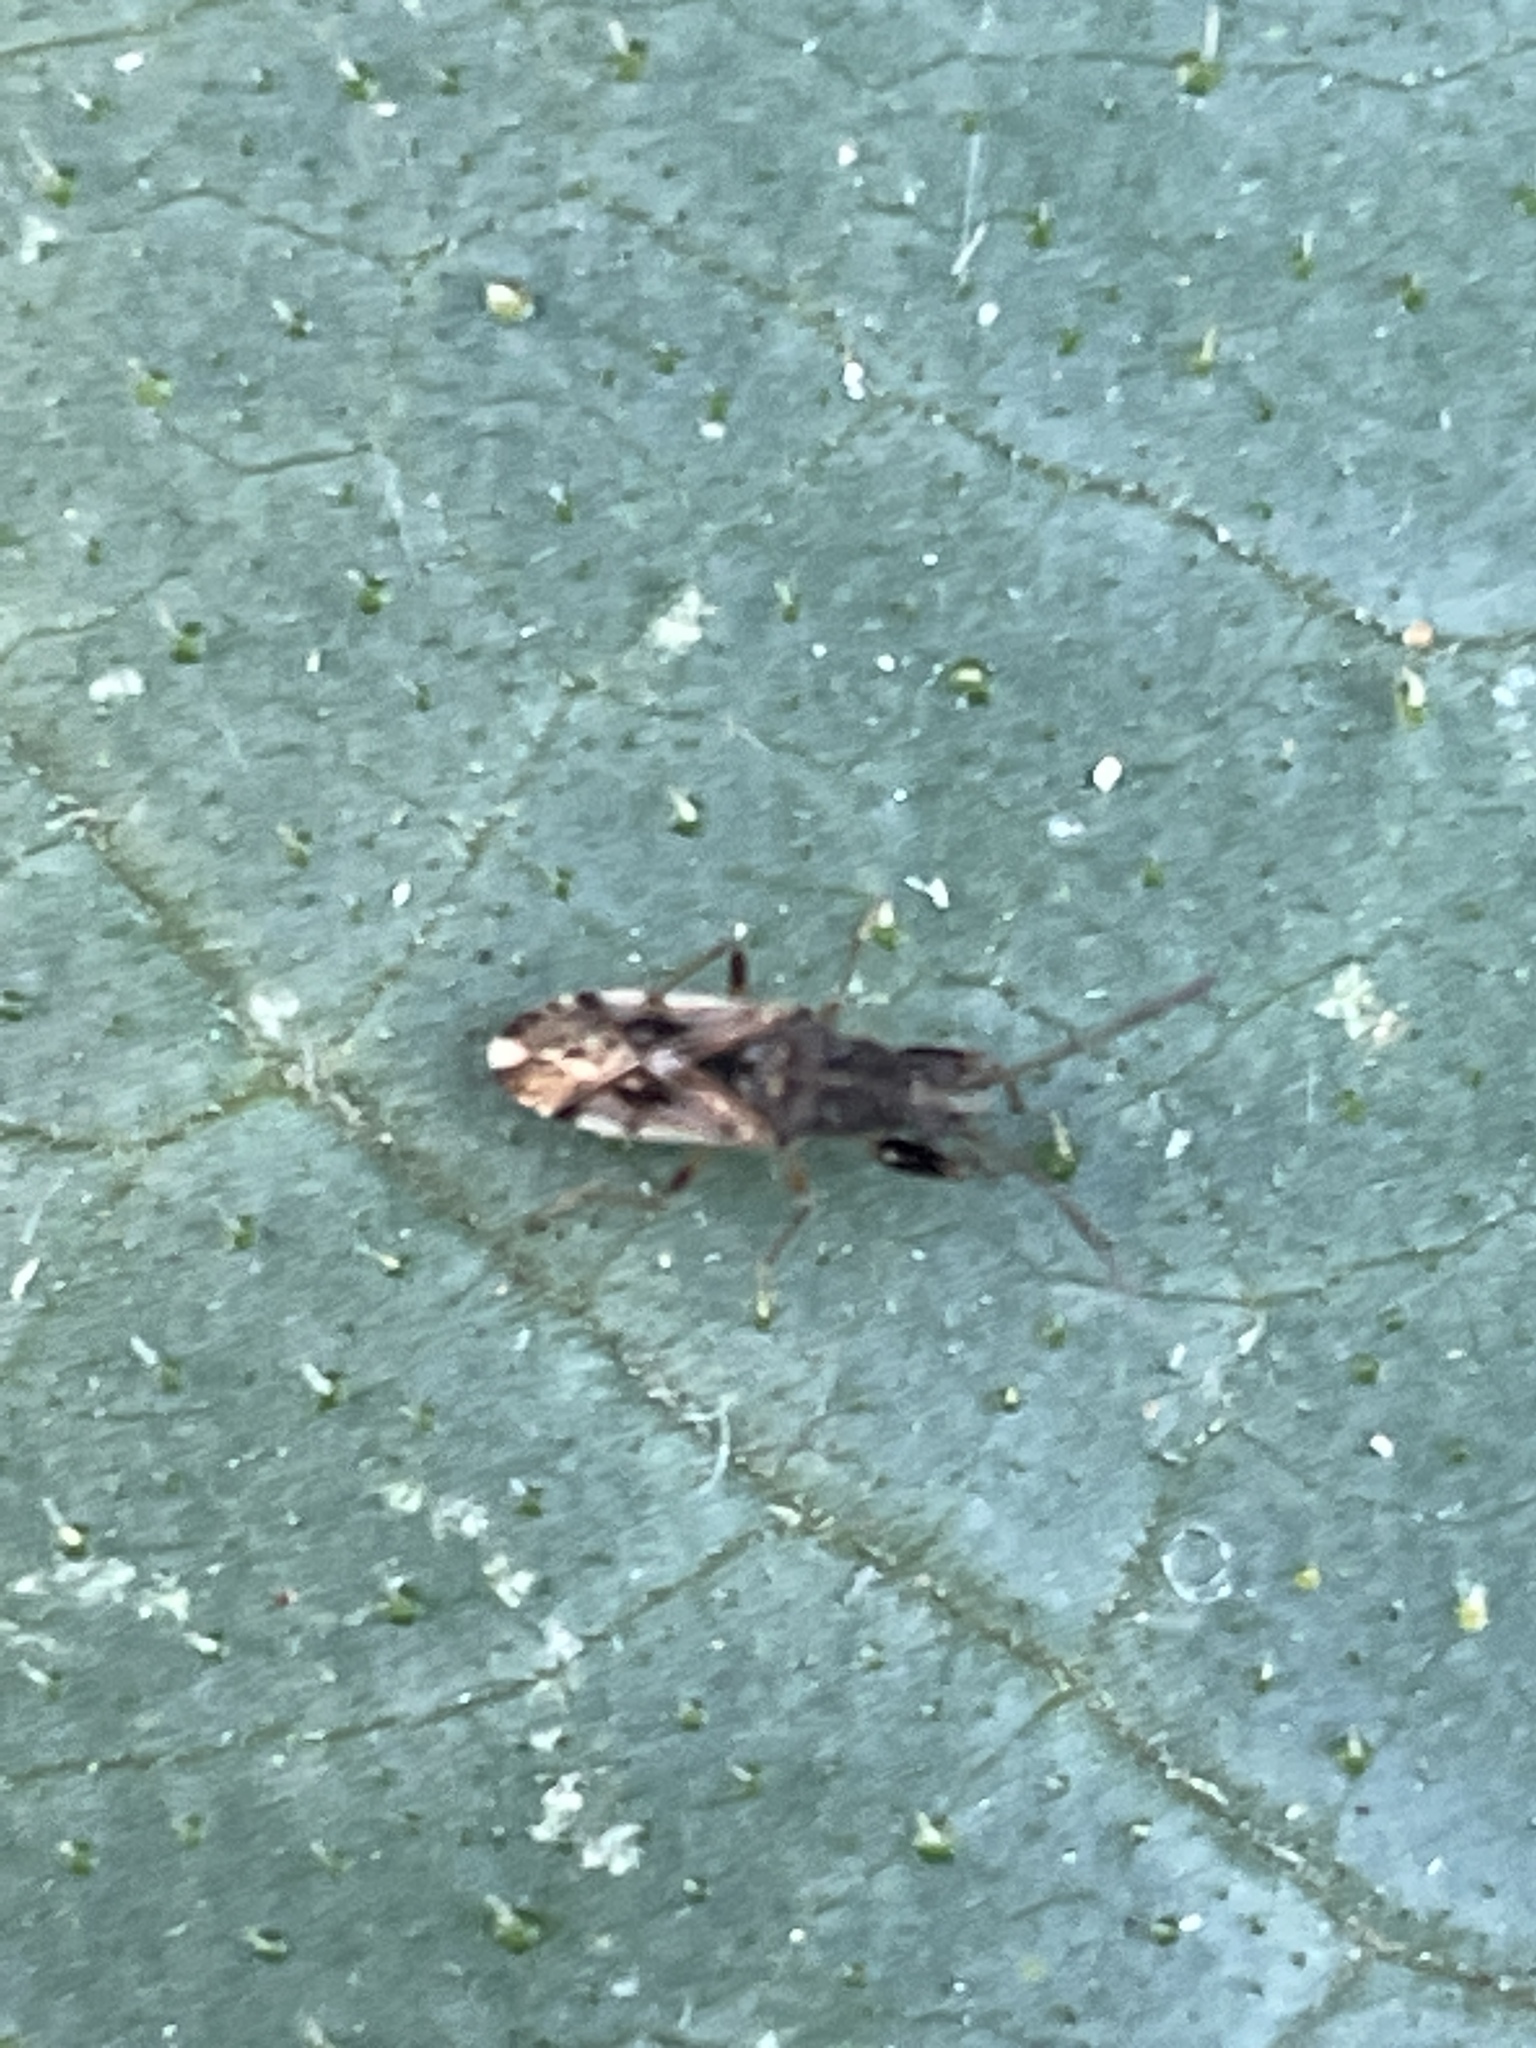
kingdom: Animalia
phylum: Arthropoda
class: Insecta
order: Hemiptera
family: Rhyparochromidae
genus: Remaudiereana
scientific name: Remaudiereana inornatus
